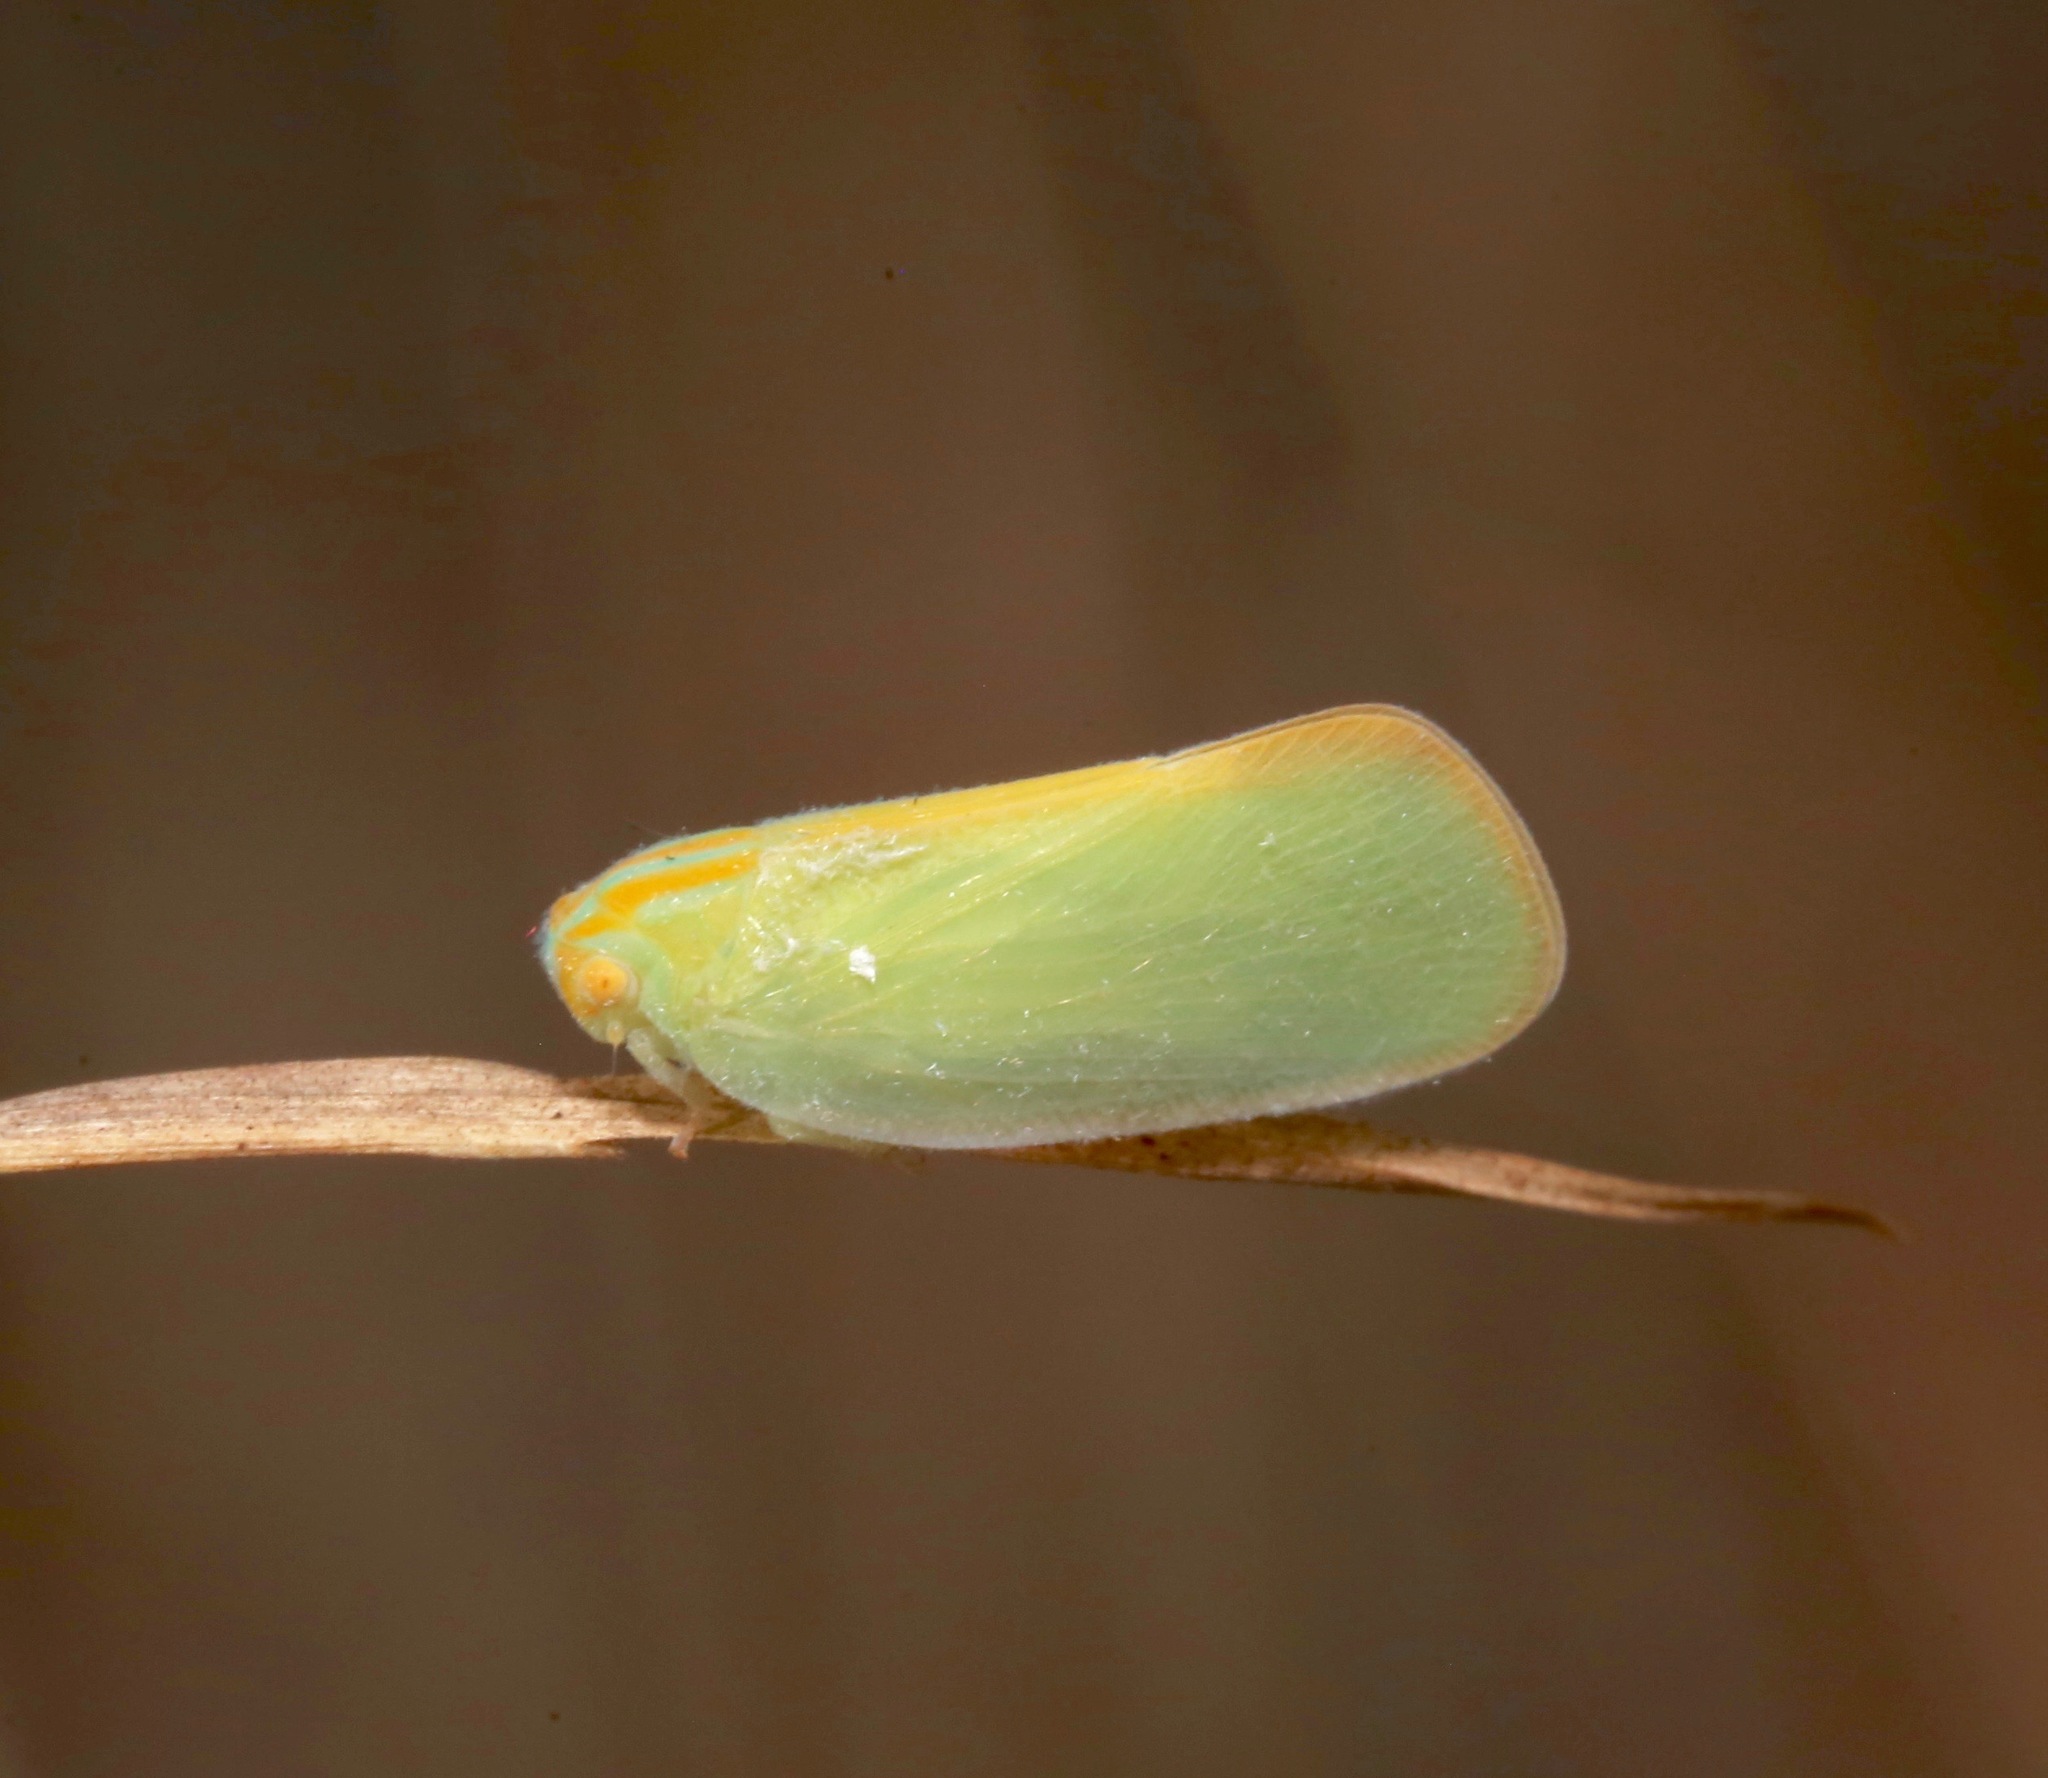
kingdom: Animalia
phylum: Arthropoda
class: Insecta
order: Hemiptera
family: Flatidae
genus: Ormenaria
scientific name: Ormenaria rufifascia
